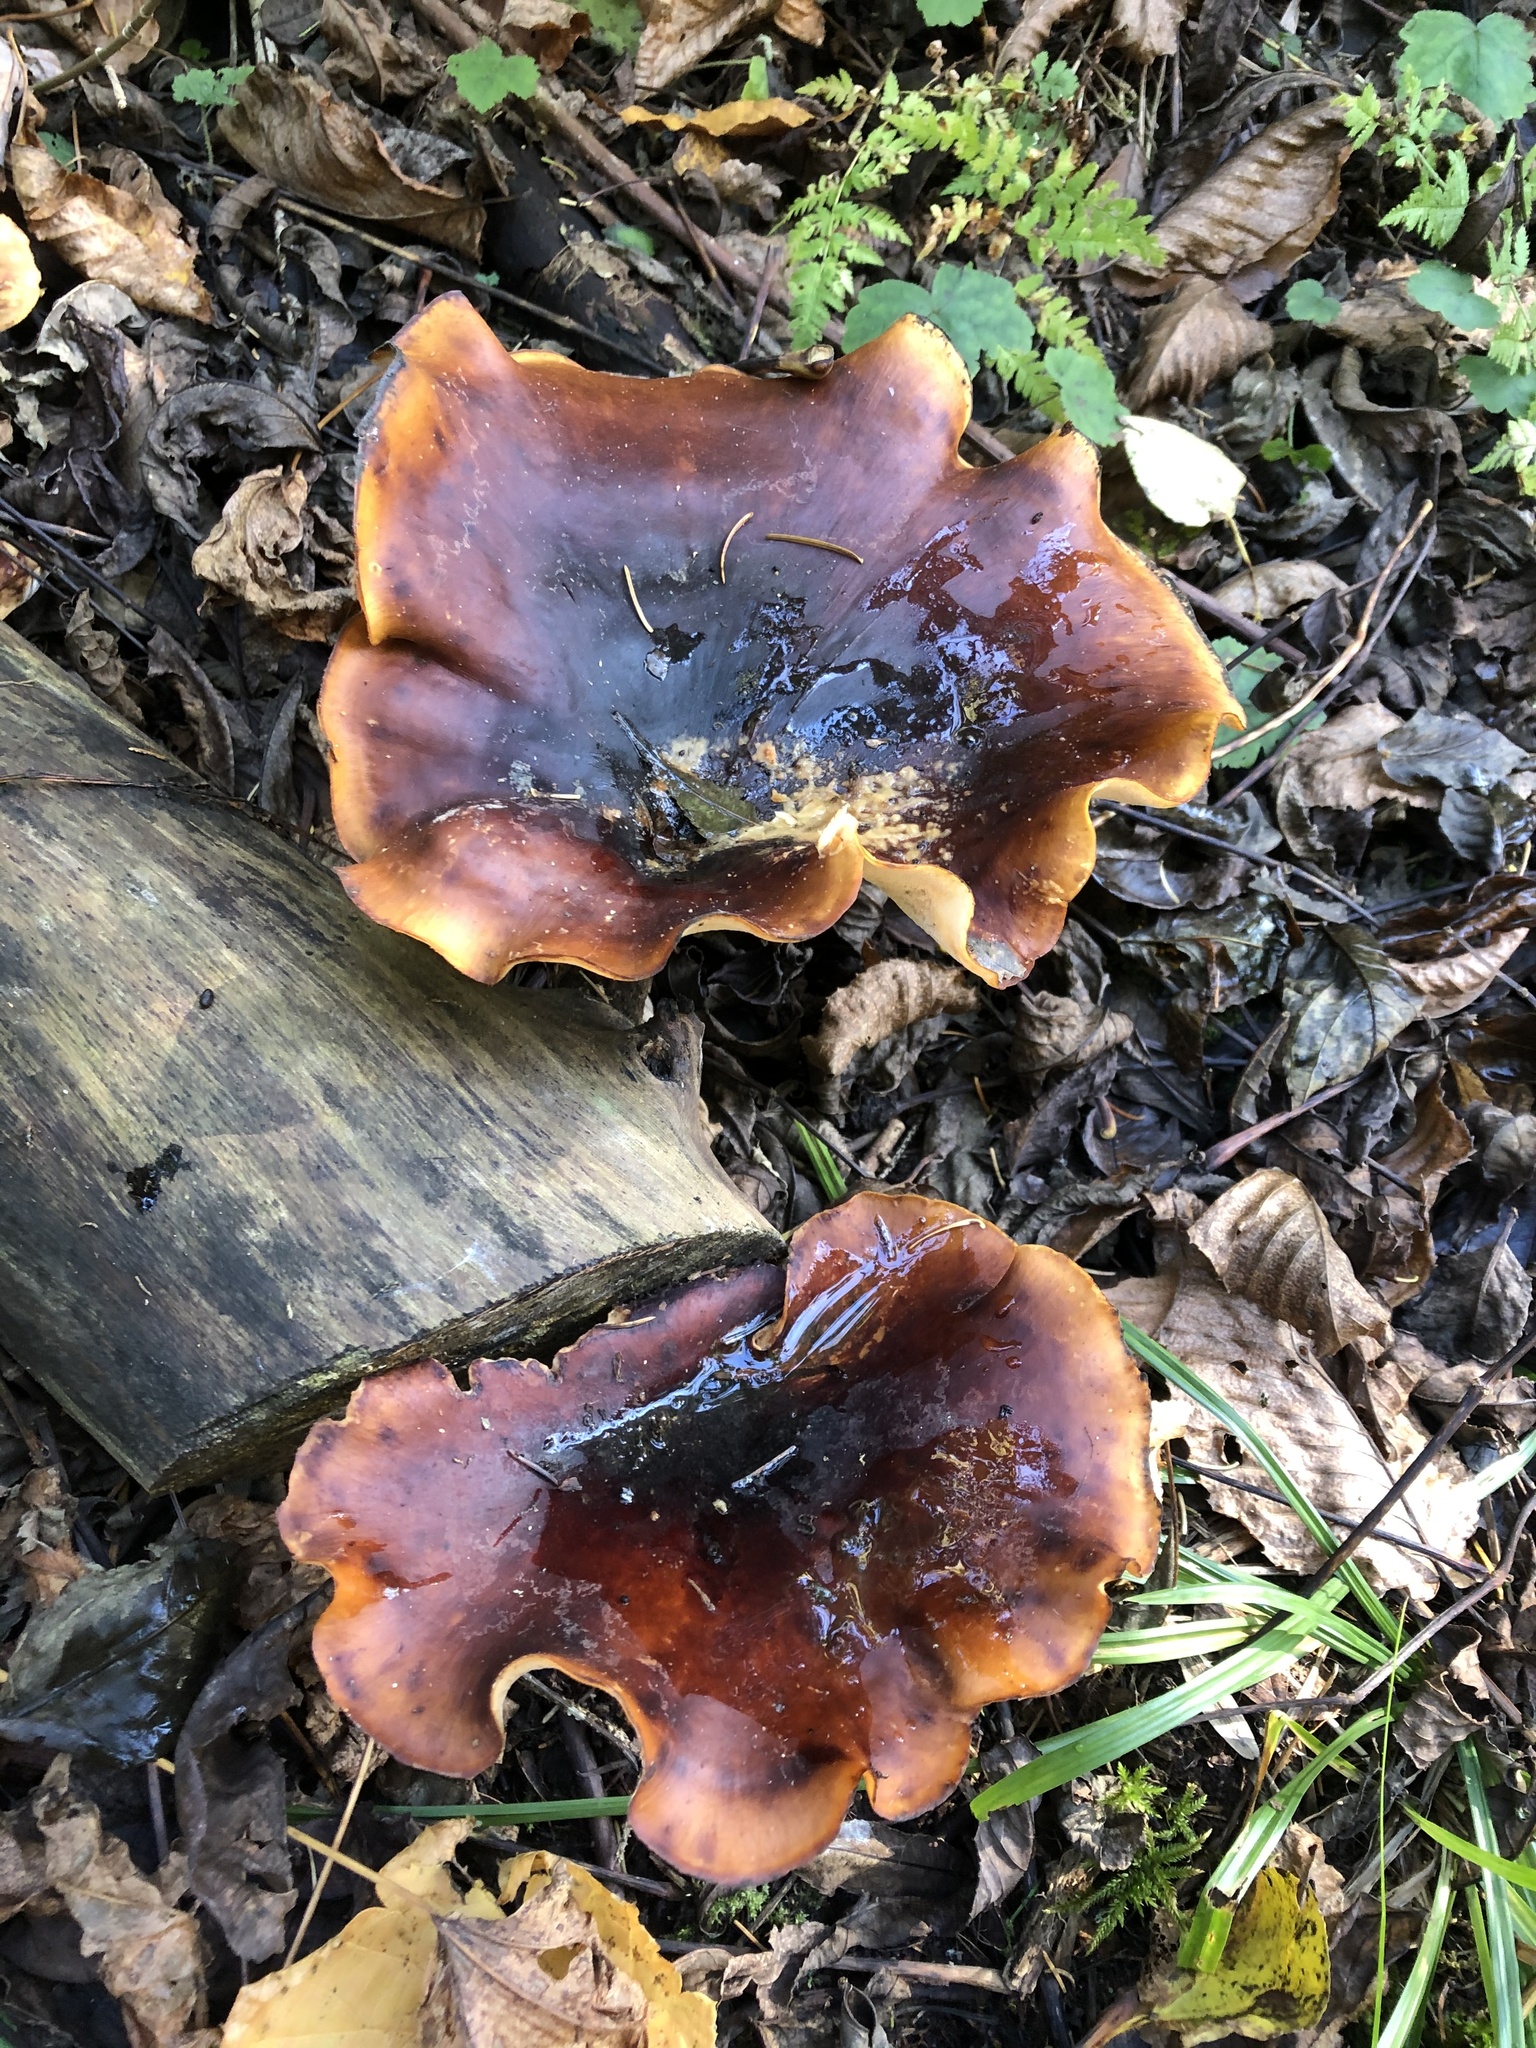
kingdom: Fungi
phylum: Basidiomycota
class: Agaricomycetes
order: Polyporales
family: Polyporaceae
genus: Picipes
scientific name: Picipes badius
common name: Bay polypore
